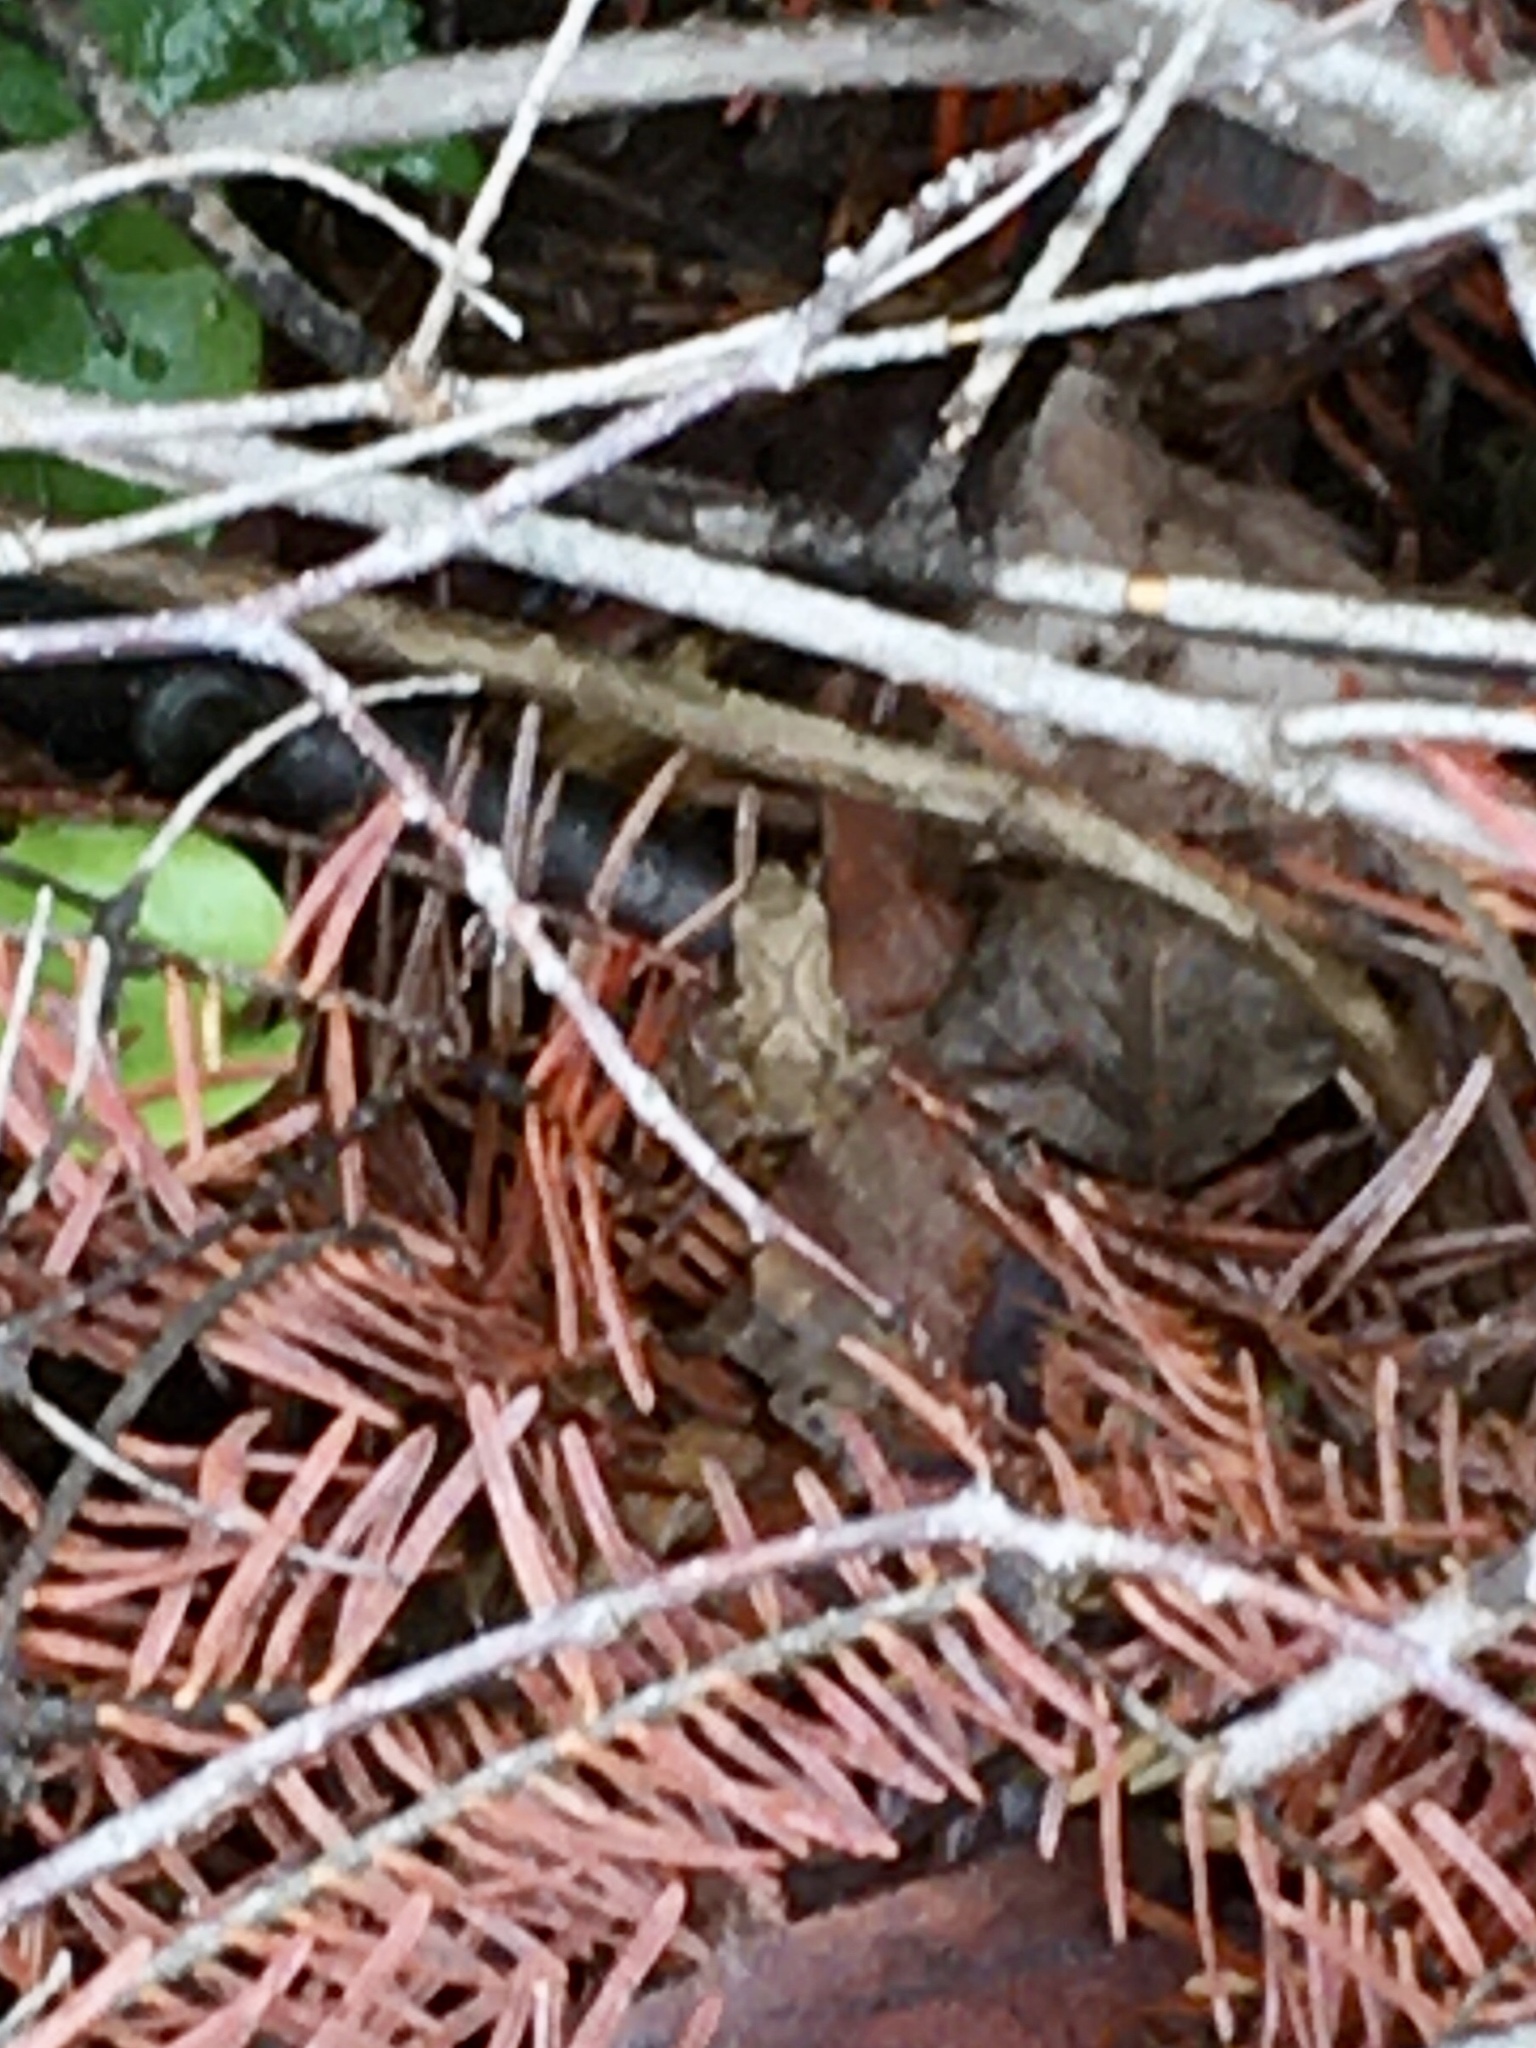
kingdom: Animalia
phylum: Chordata
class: Amphibia
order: Anura
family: Hylidae
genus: Pseudacris
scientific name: Pseudacris crucifer
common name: Spring peeper
